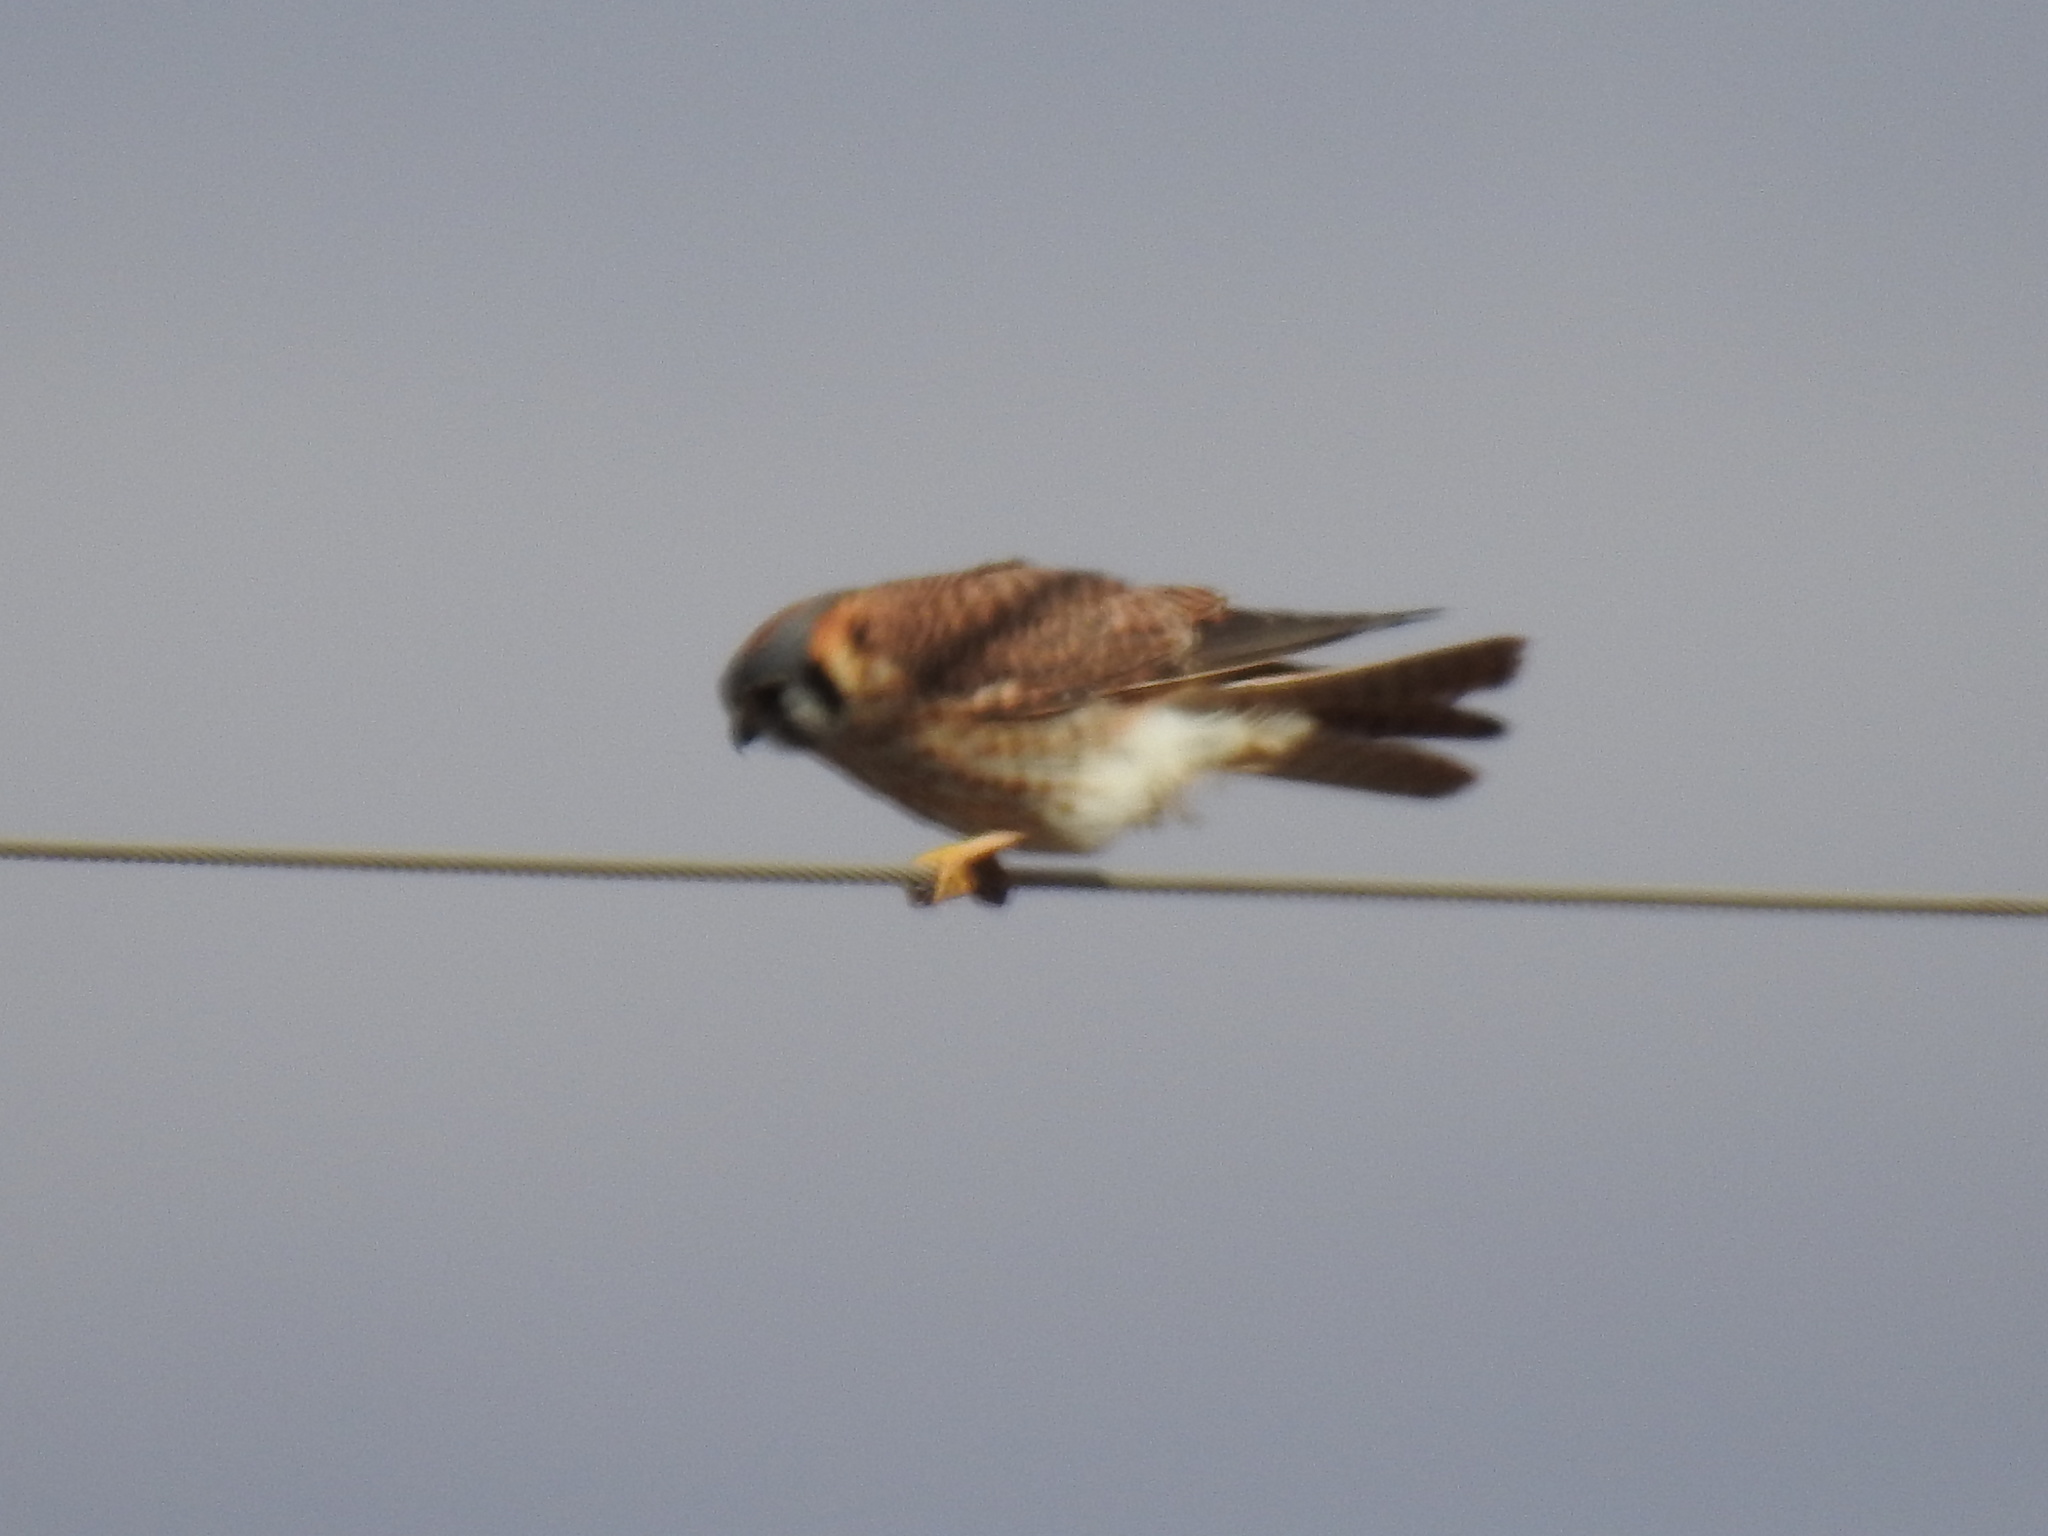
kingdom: Animalia
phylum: Chordata
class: Aves
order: Falconiformes
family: Falconidae
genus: Falco
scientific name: Falco sparverius
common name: American kestrel
